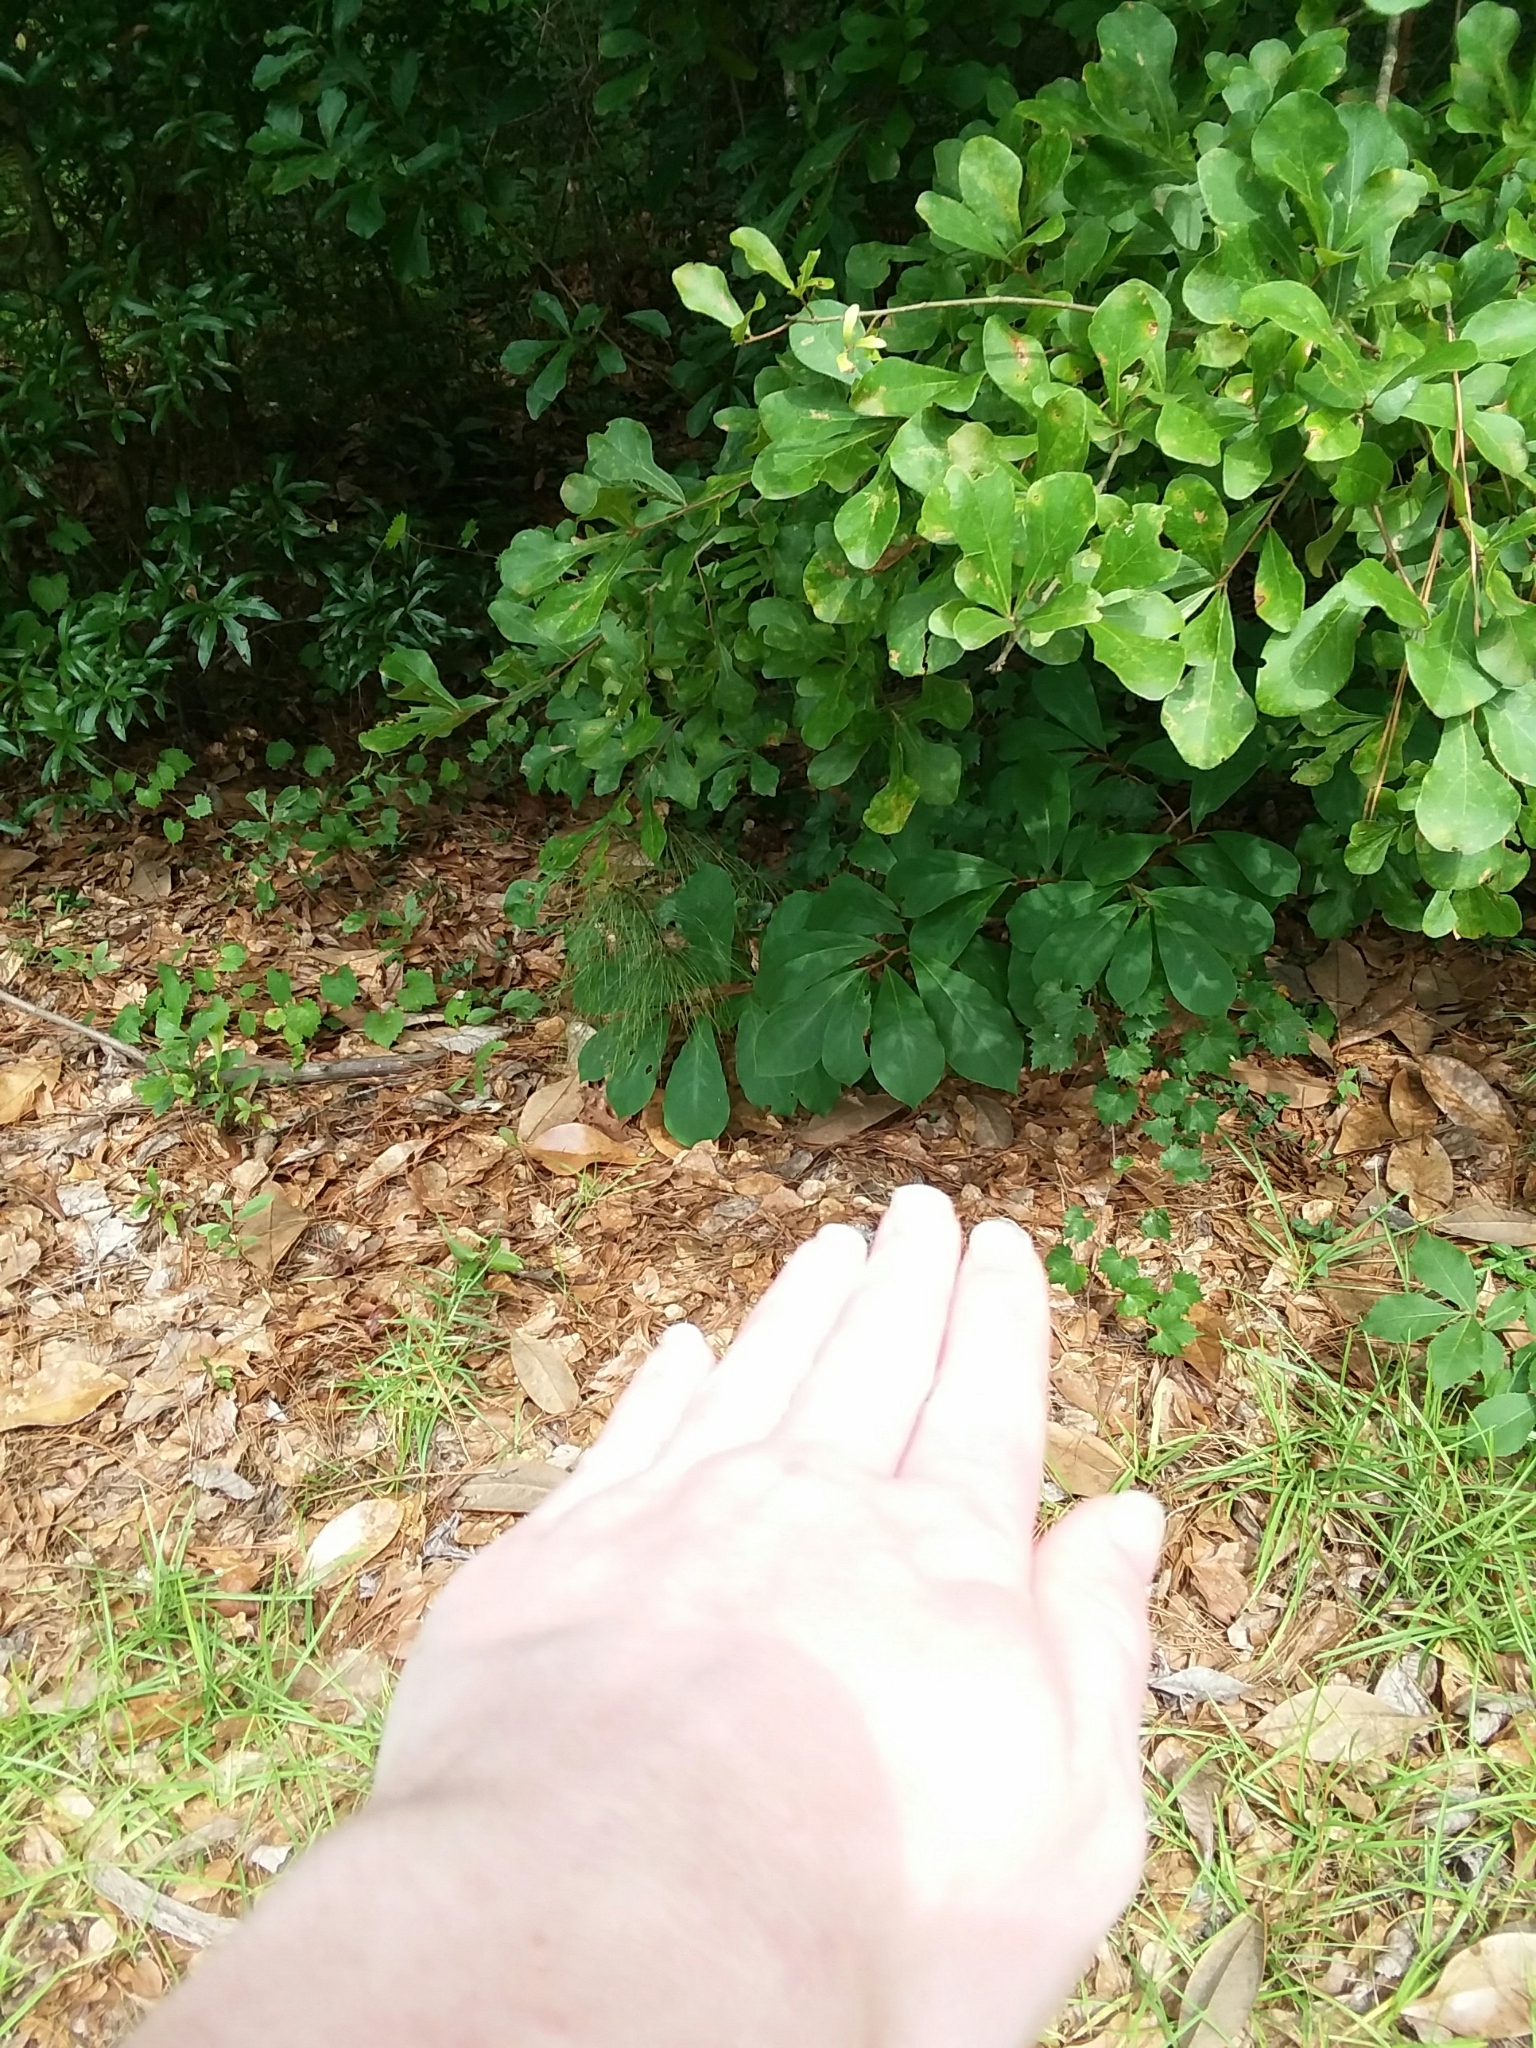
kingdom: Plantae
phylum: Tracheophyta
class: Magnoliopsida
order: Magnoliales
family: Annonaceae
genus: Asimina
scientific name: Asimina parviflora
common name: Dwarf pawpaw
